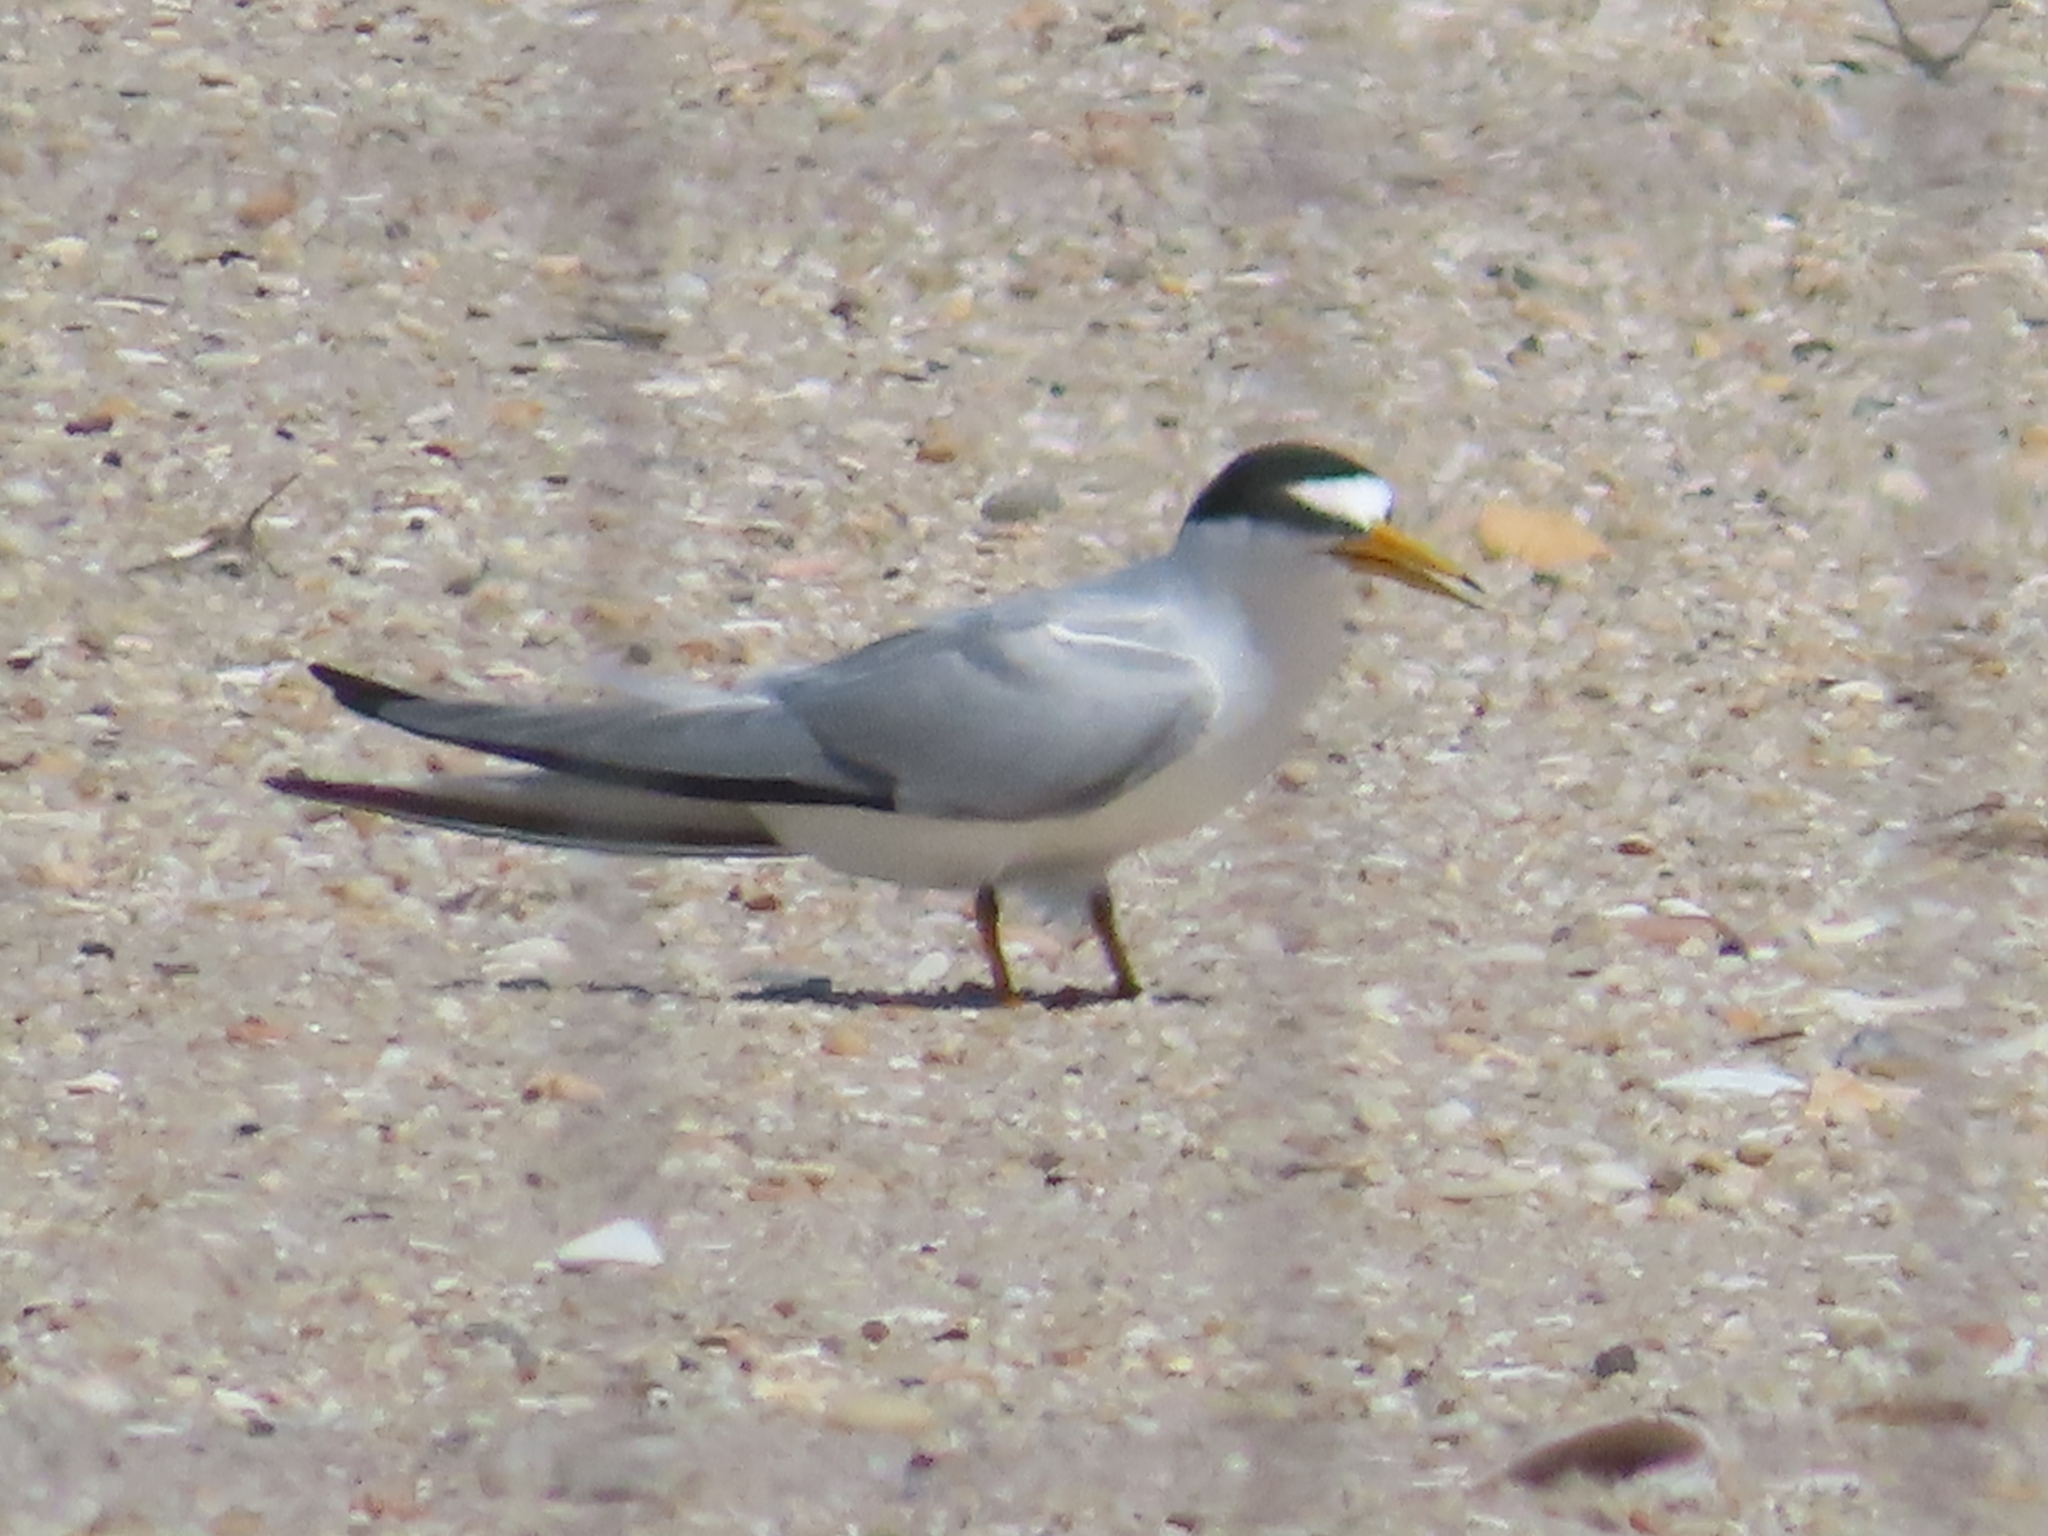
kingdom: Animalia
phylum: Chordata
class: Aves
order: Charadriiformes
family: Laridae
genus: Sternula
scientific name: Sternula antillarum
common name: Least tern
